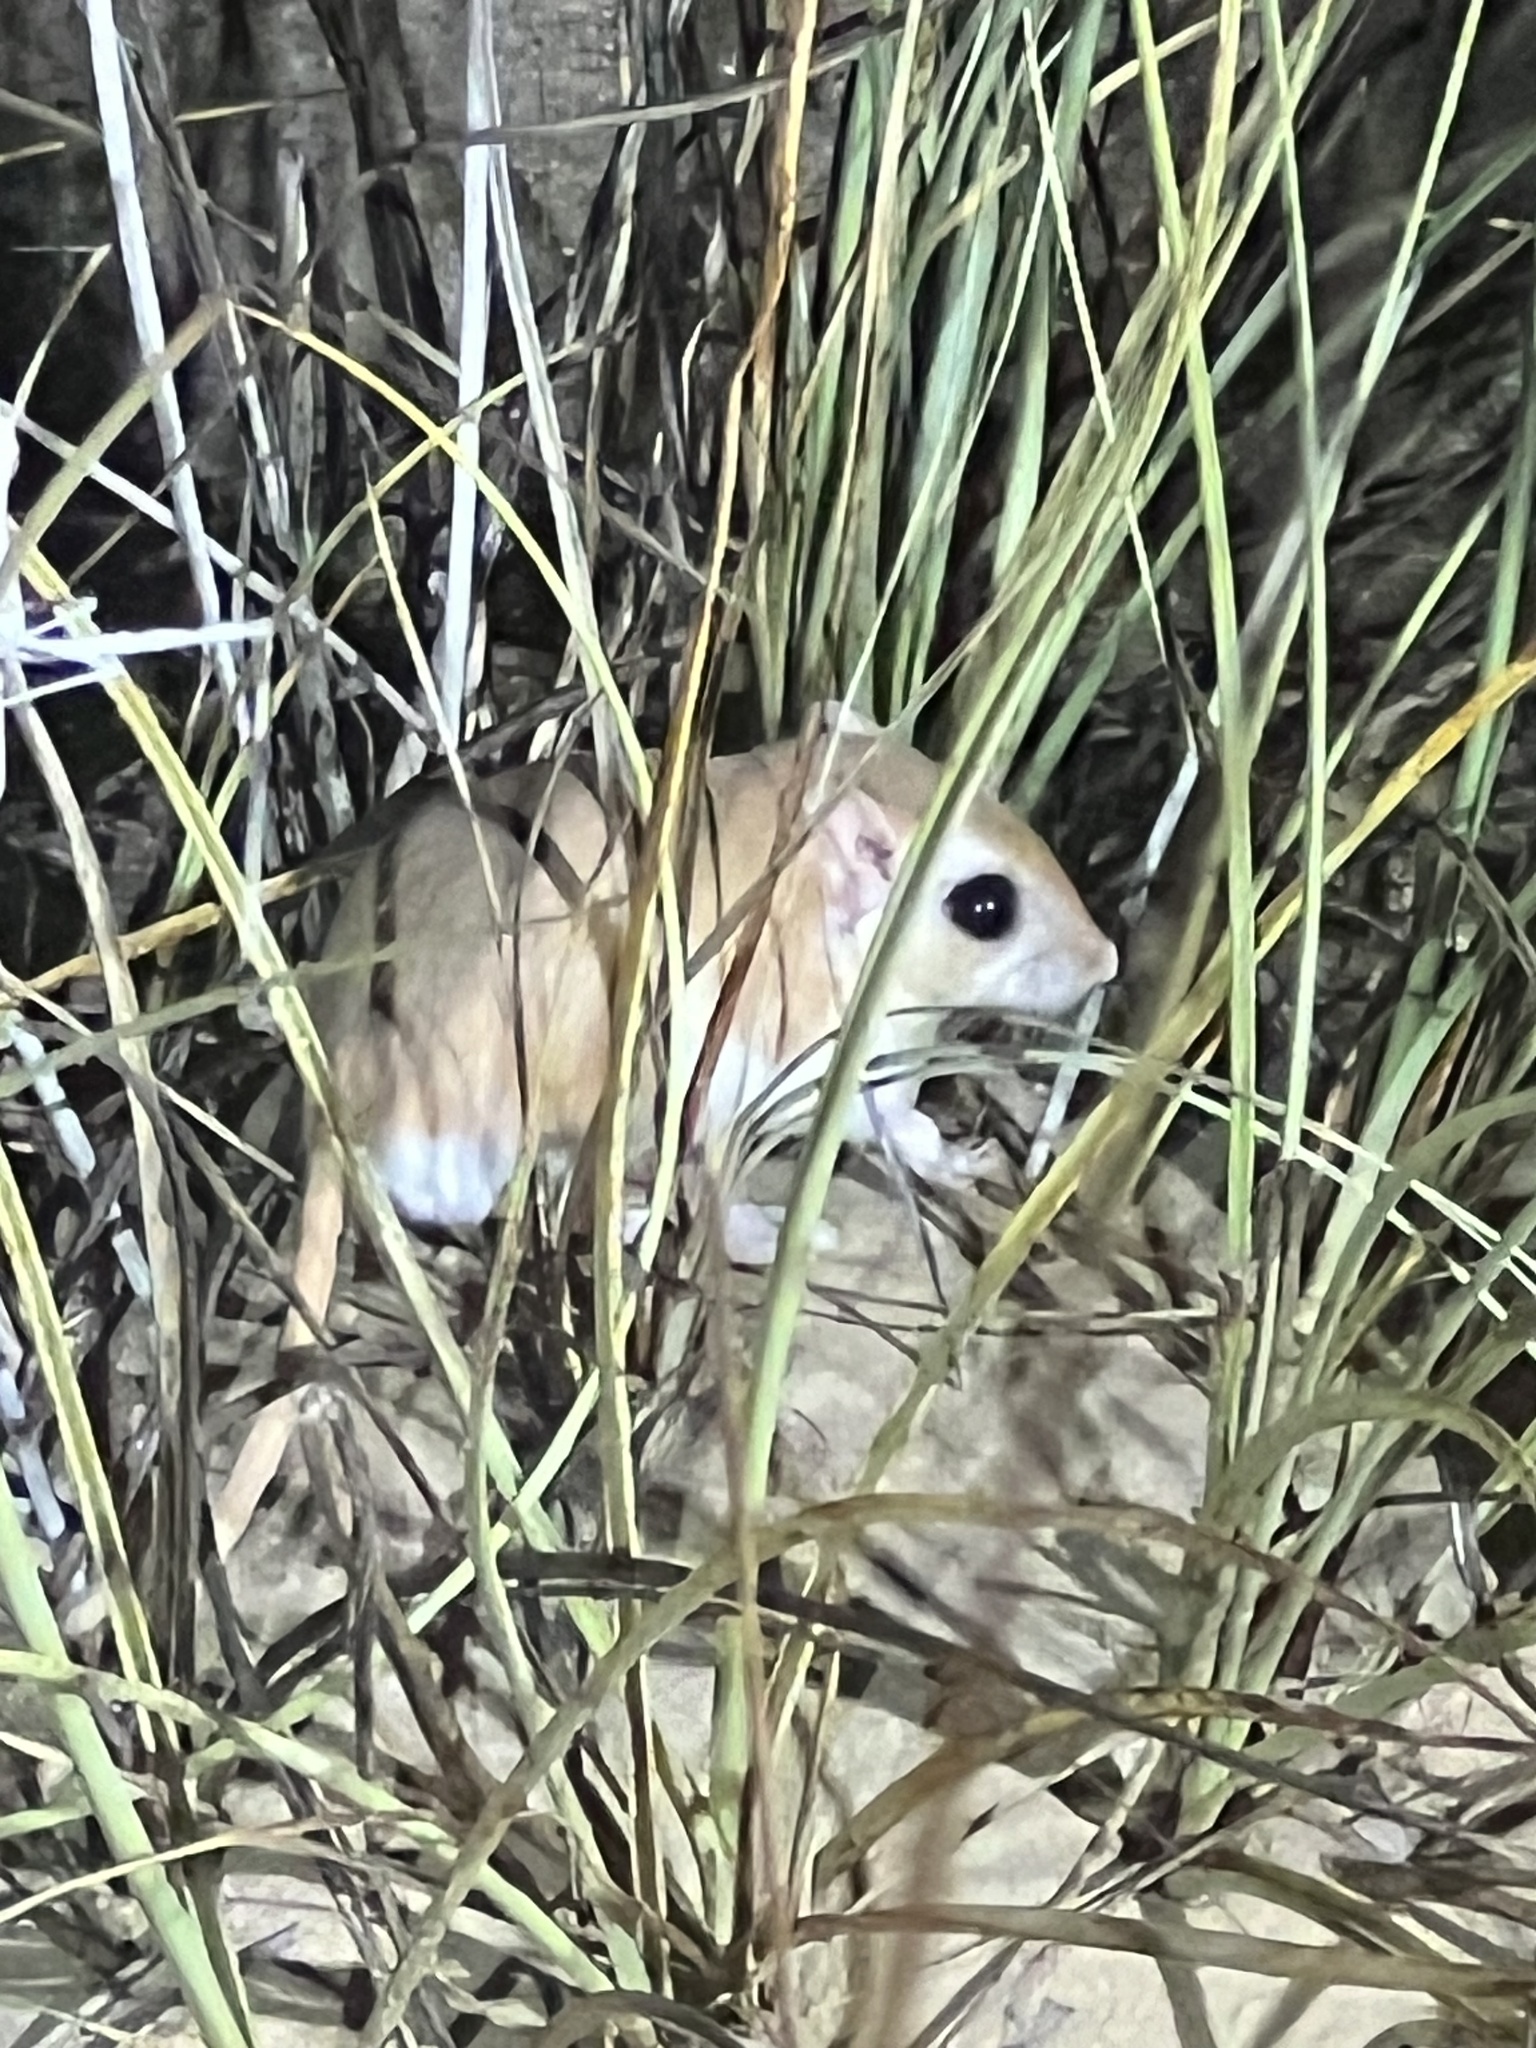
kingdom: Animalia
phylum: Chordata
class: Mammalia
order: Rodentia
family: Muridae
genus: Gerbillus
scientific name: Gerbillus cheesmani
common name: Cheesman's gerbil
